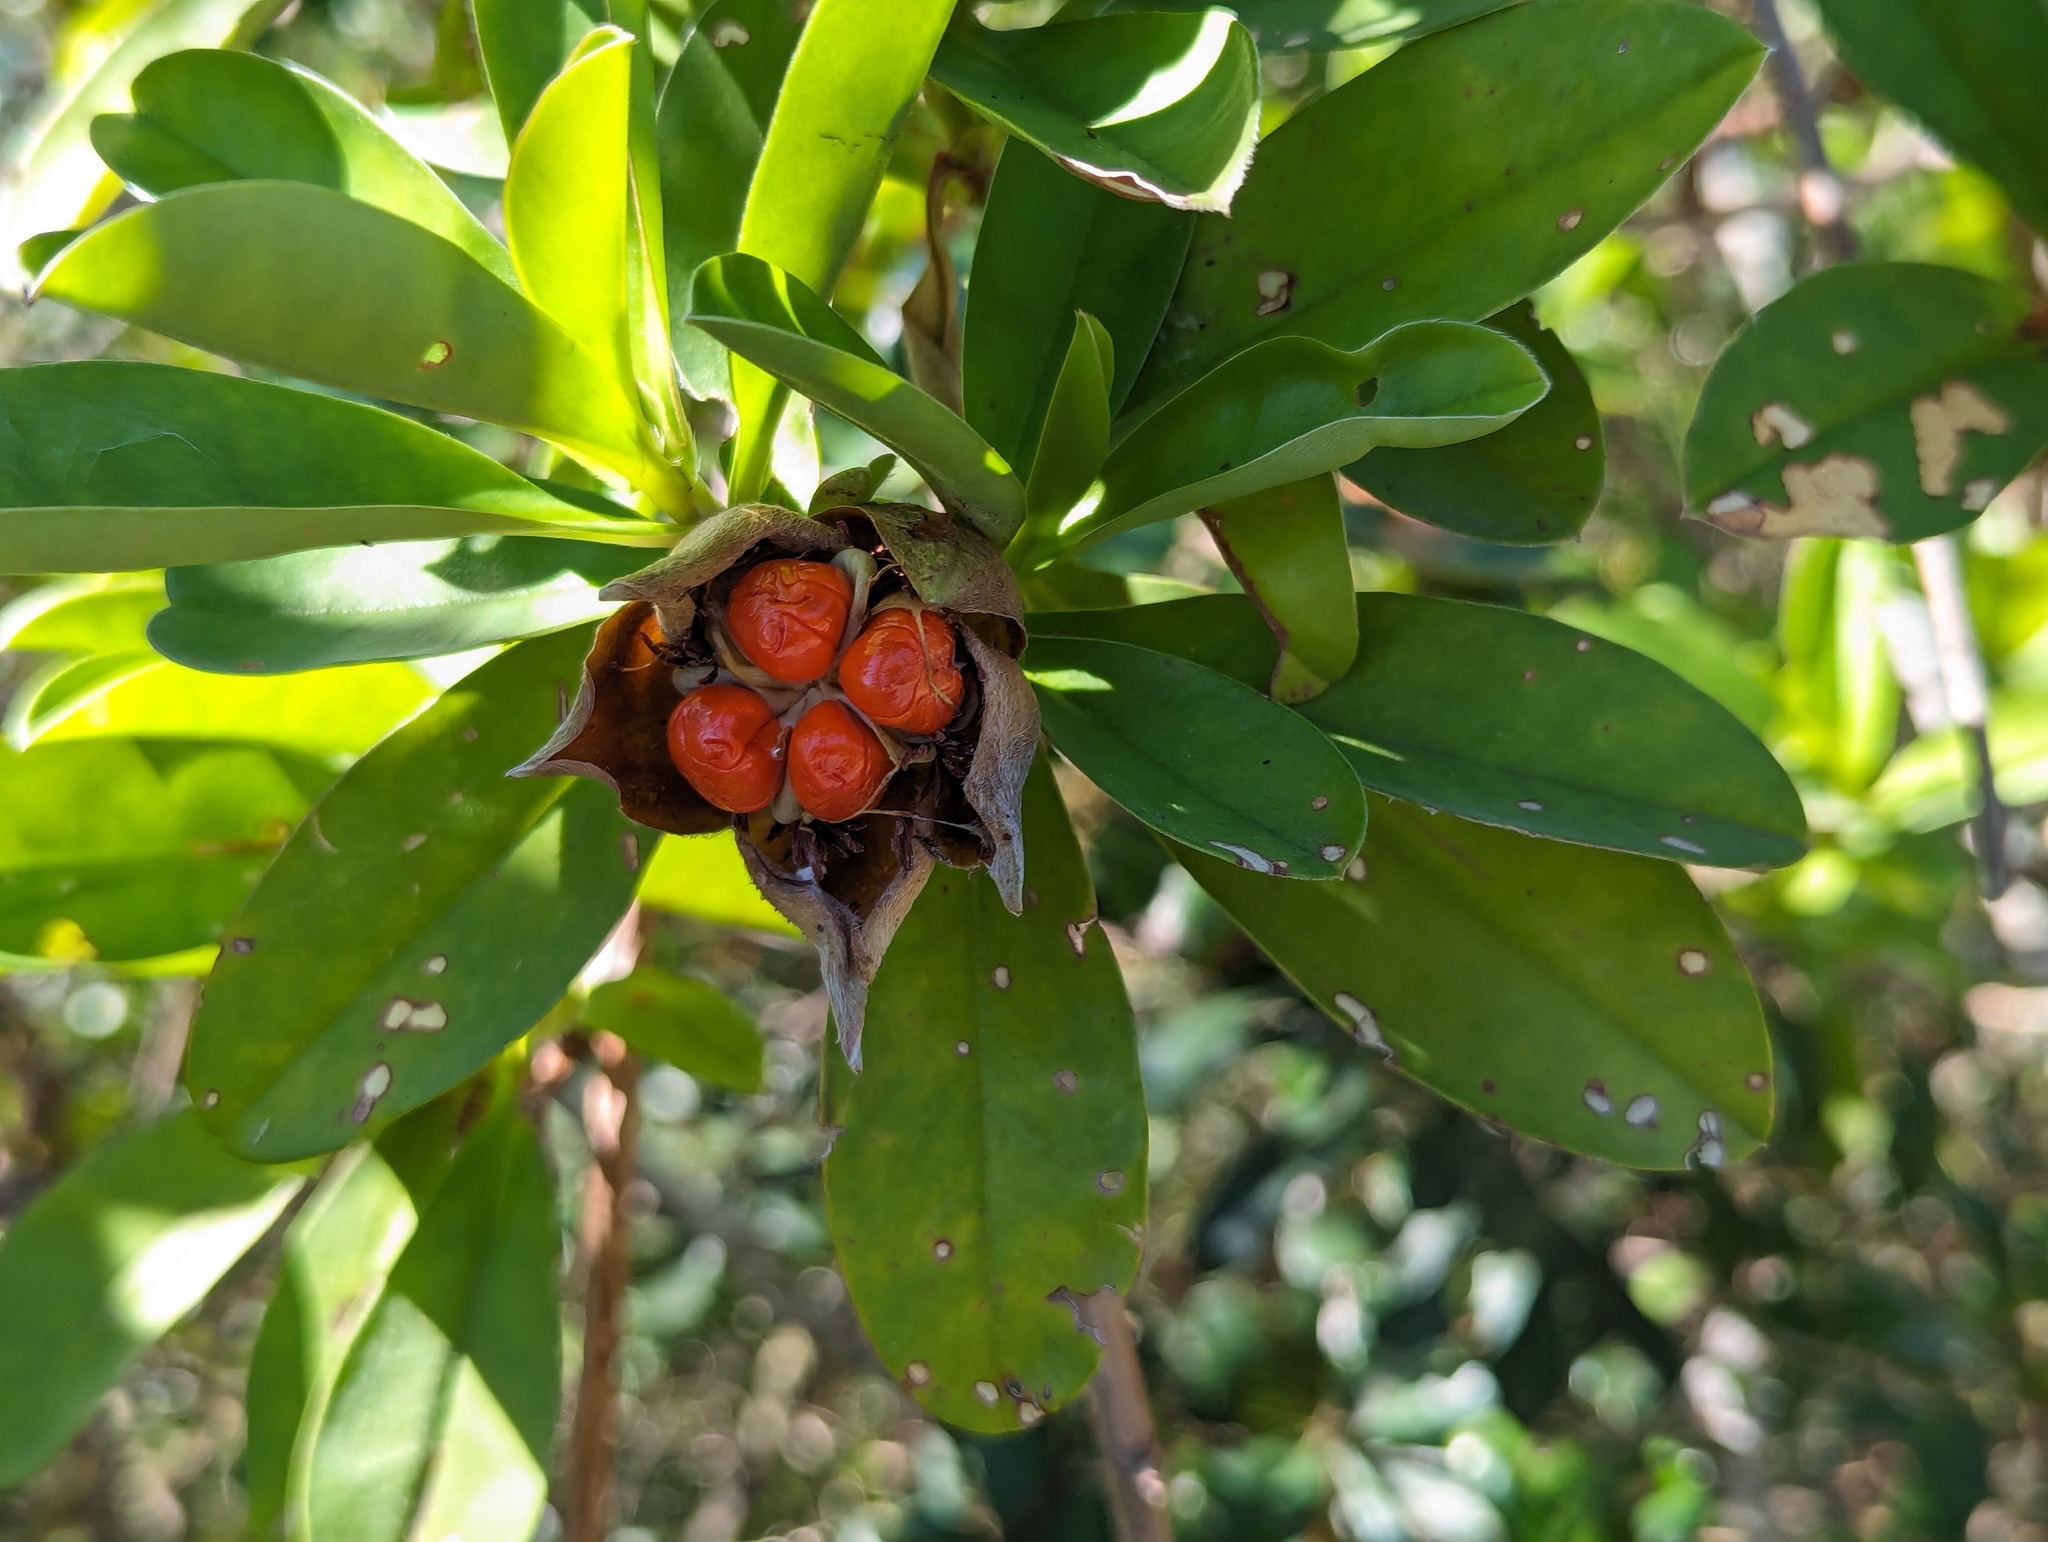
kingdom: Plantae
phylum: Tracheophyta
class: Magnoliopsida
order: Dilleniales
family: Dilleniaceae
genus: Hibbertia
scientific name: Hibbertia scandens
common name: Climbing guinea-flower
